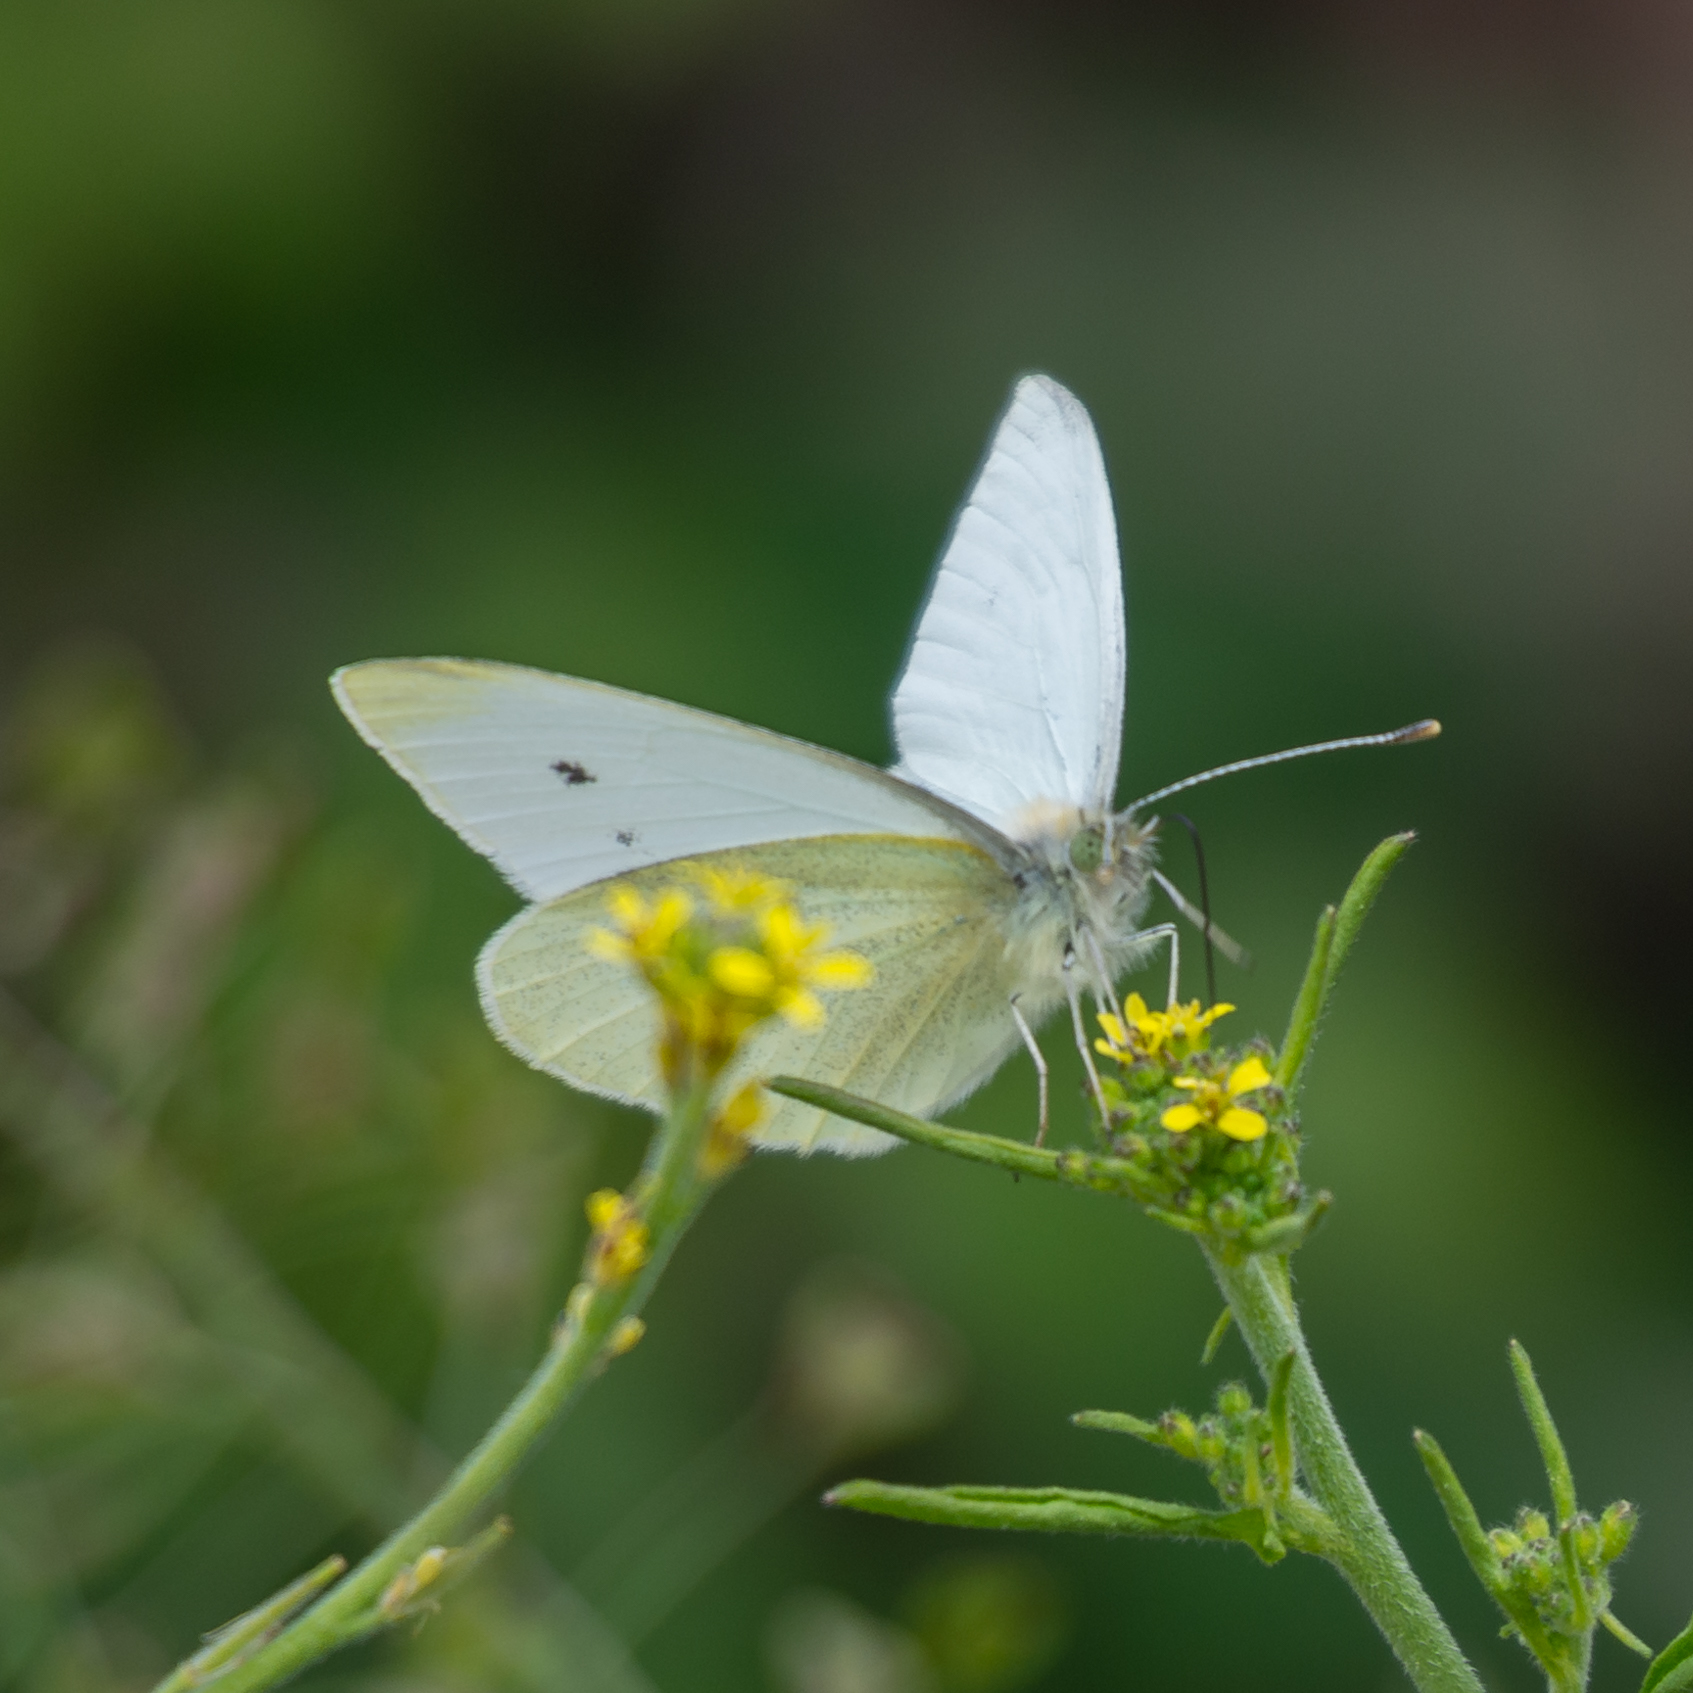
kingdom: Animalia
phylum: Arthropoda
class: Insecta
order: Lepidoptera
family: Pieridae
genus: Pieris
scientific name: Pieris rapae
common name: Small white
